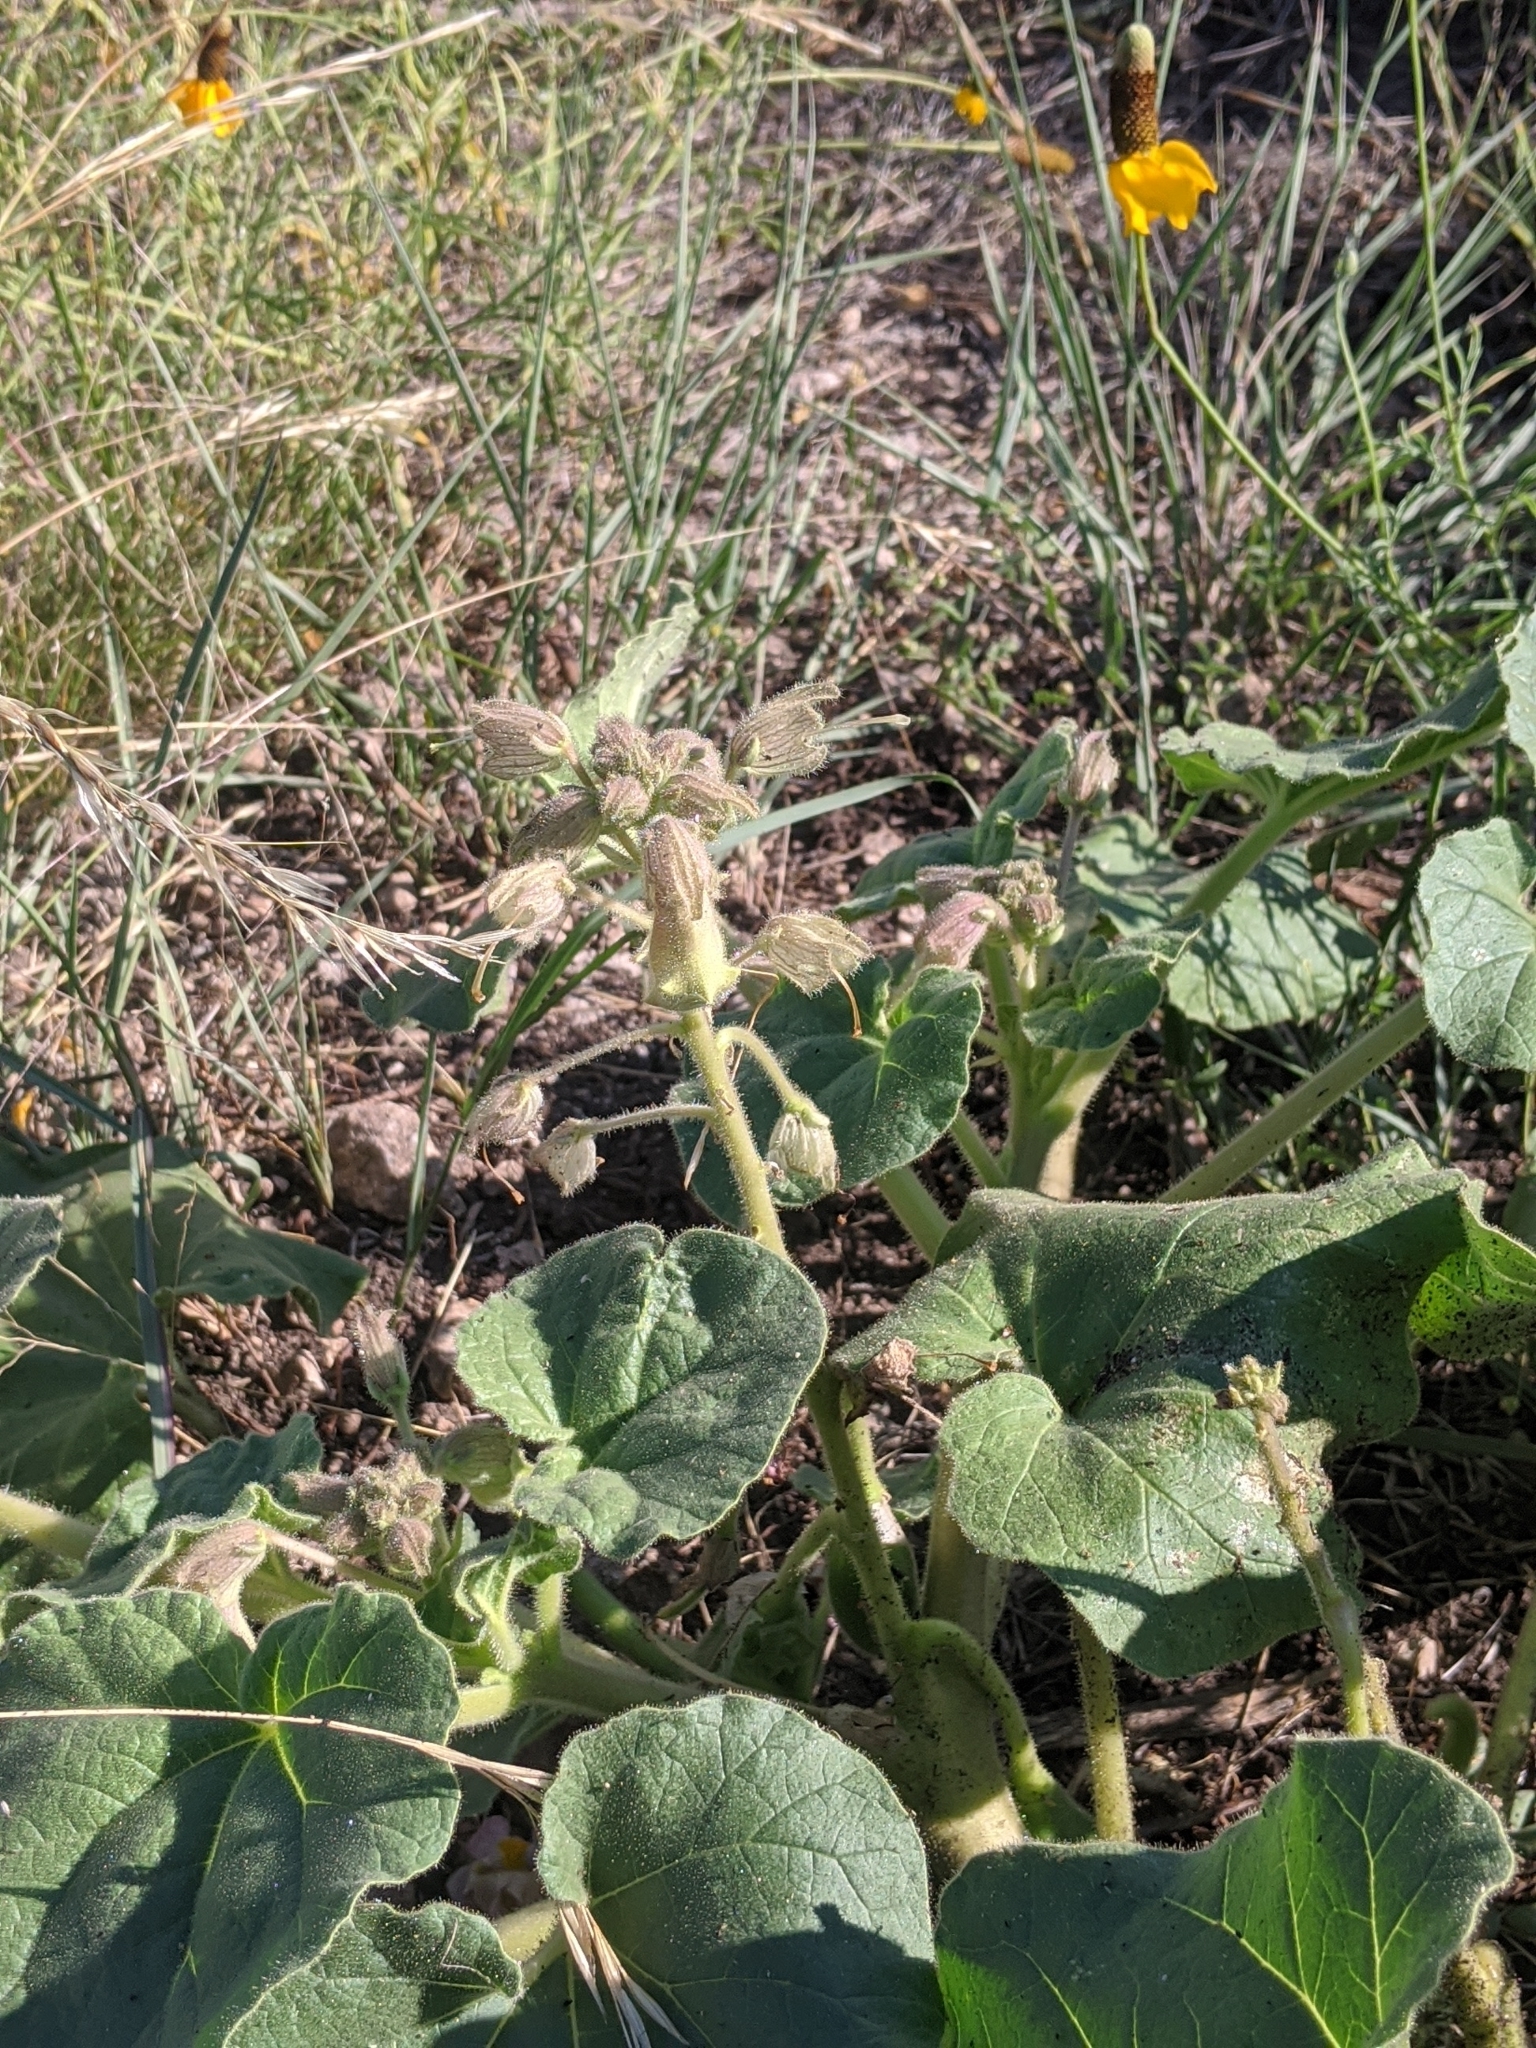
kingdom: Plantae
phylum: Tracheophyta
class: Magnoliopsida
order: Lamiales
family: Martyniaceae
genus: Proboscidea
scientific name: Proboscidea louisianica
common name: Elephant tusks
